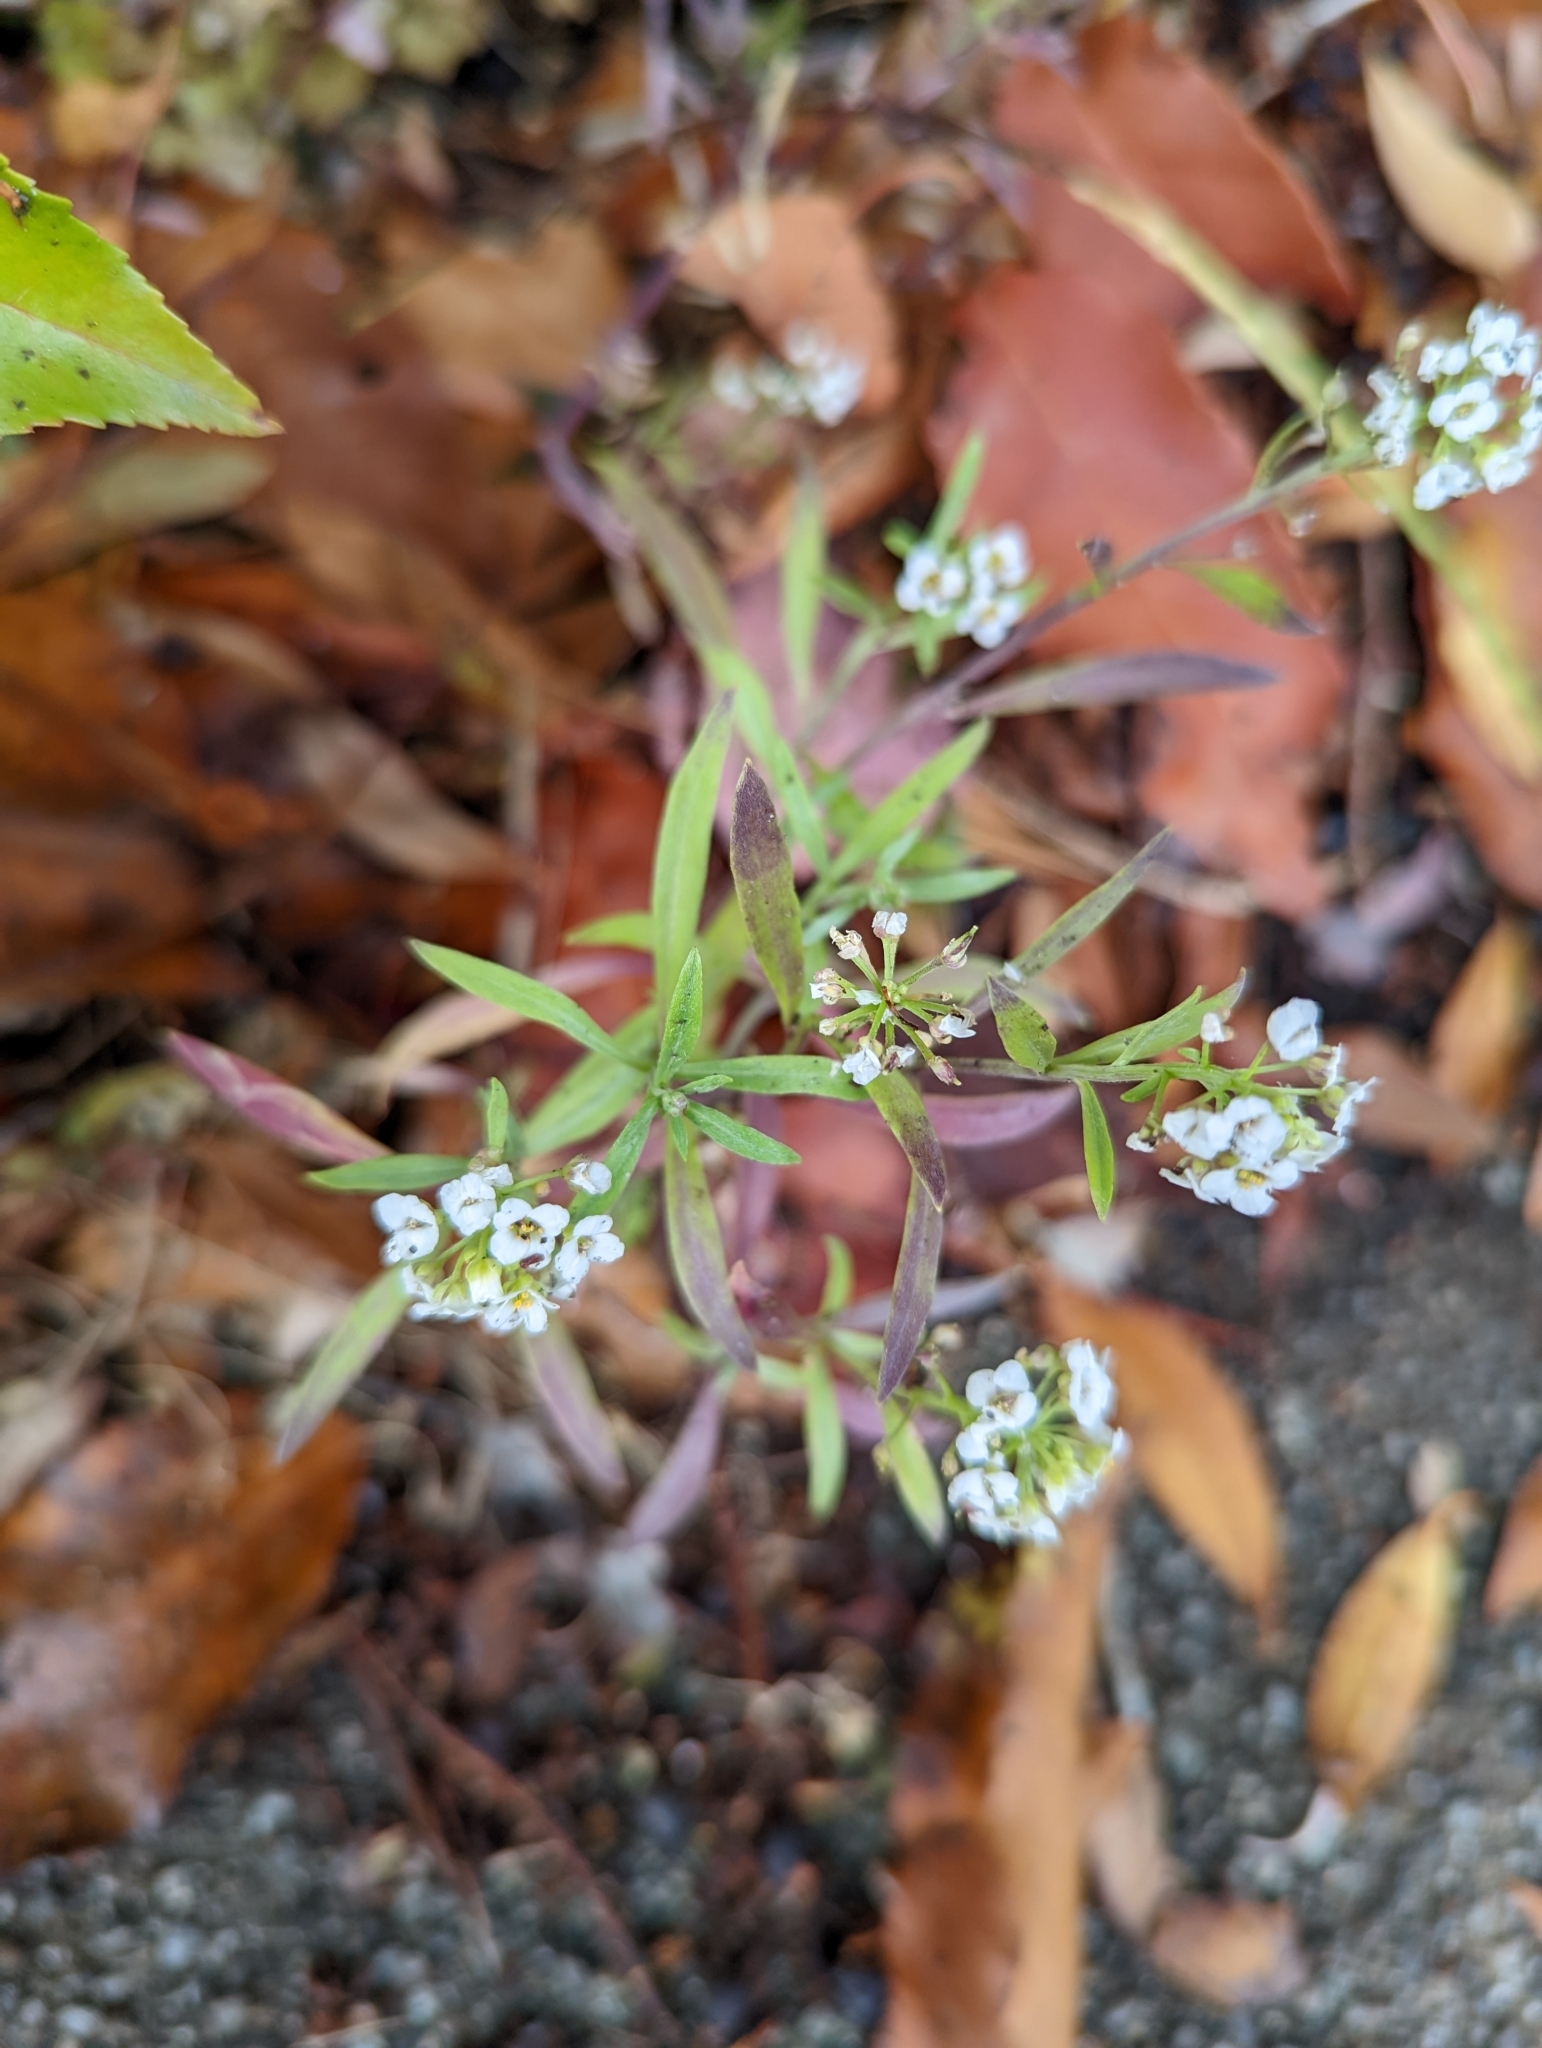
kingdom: Plantae
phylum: Tracheophyta
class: Magnoliopsida
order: Brassicales
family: Brassicaceae
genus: Lobularia
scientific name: Lobularia maritima
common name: Sweet alison
